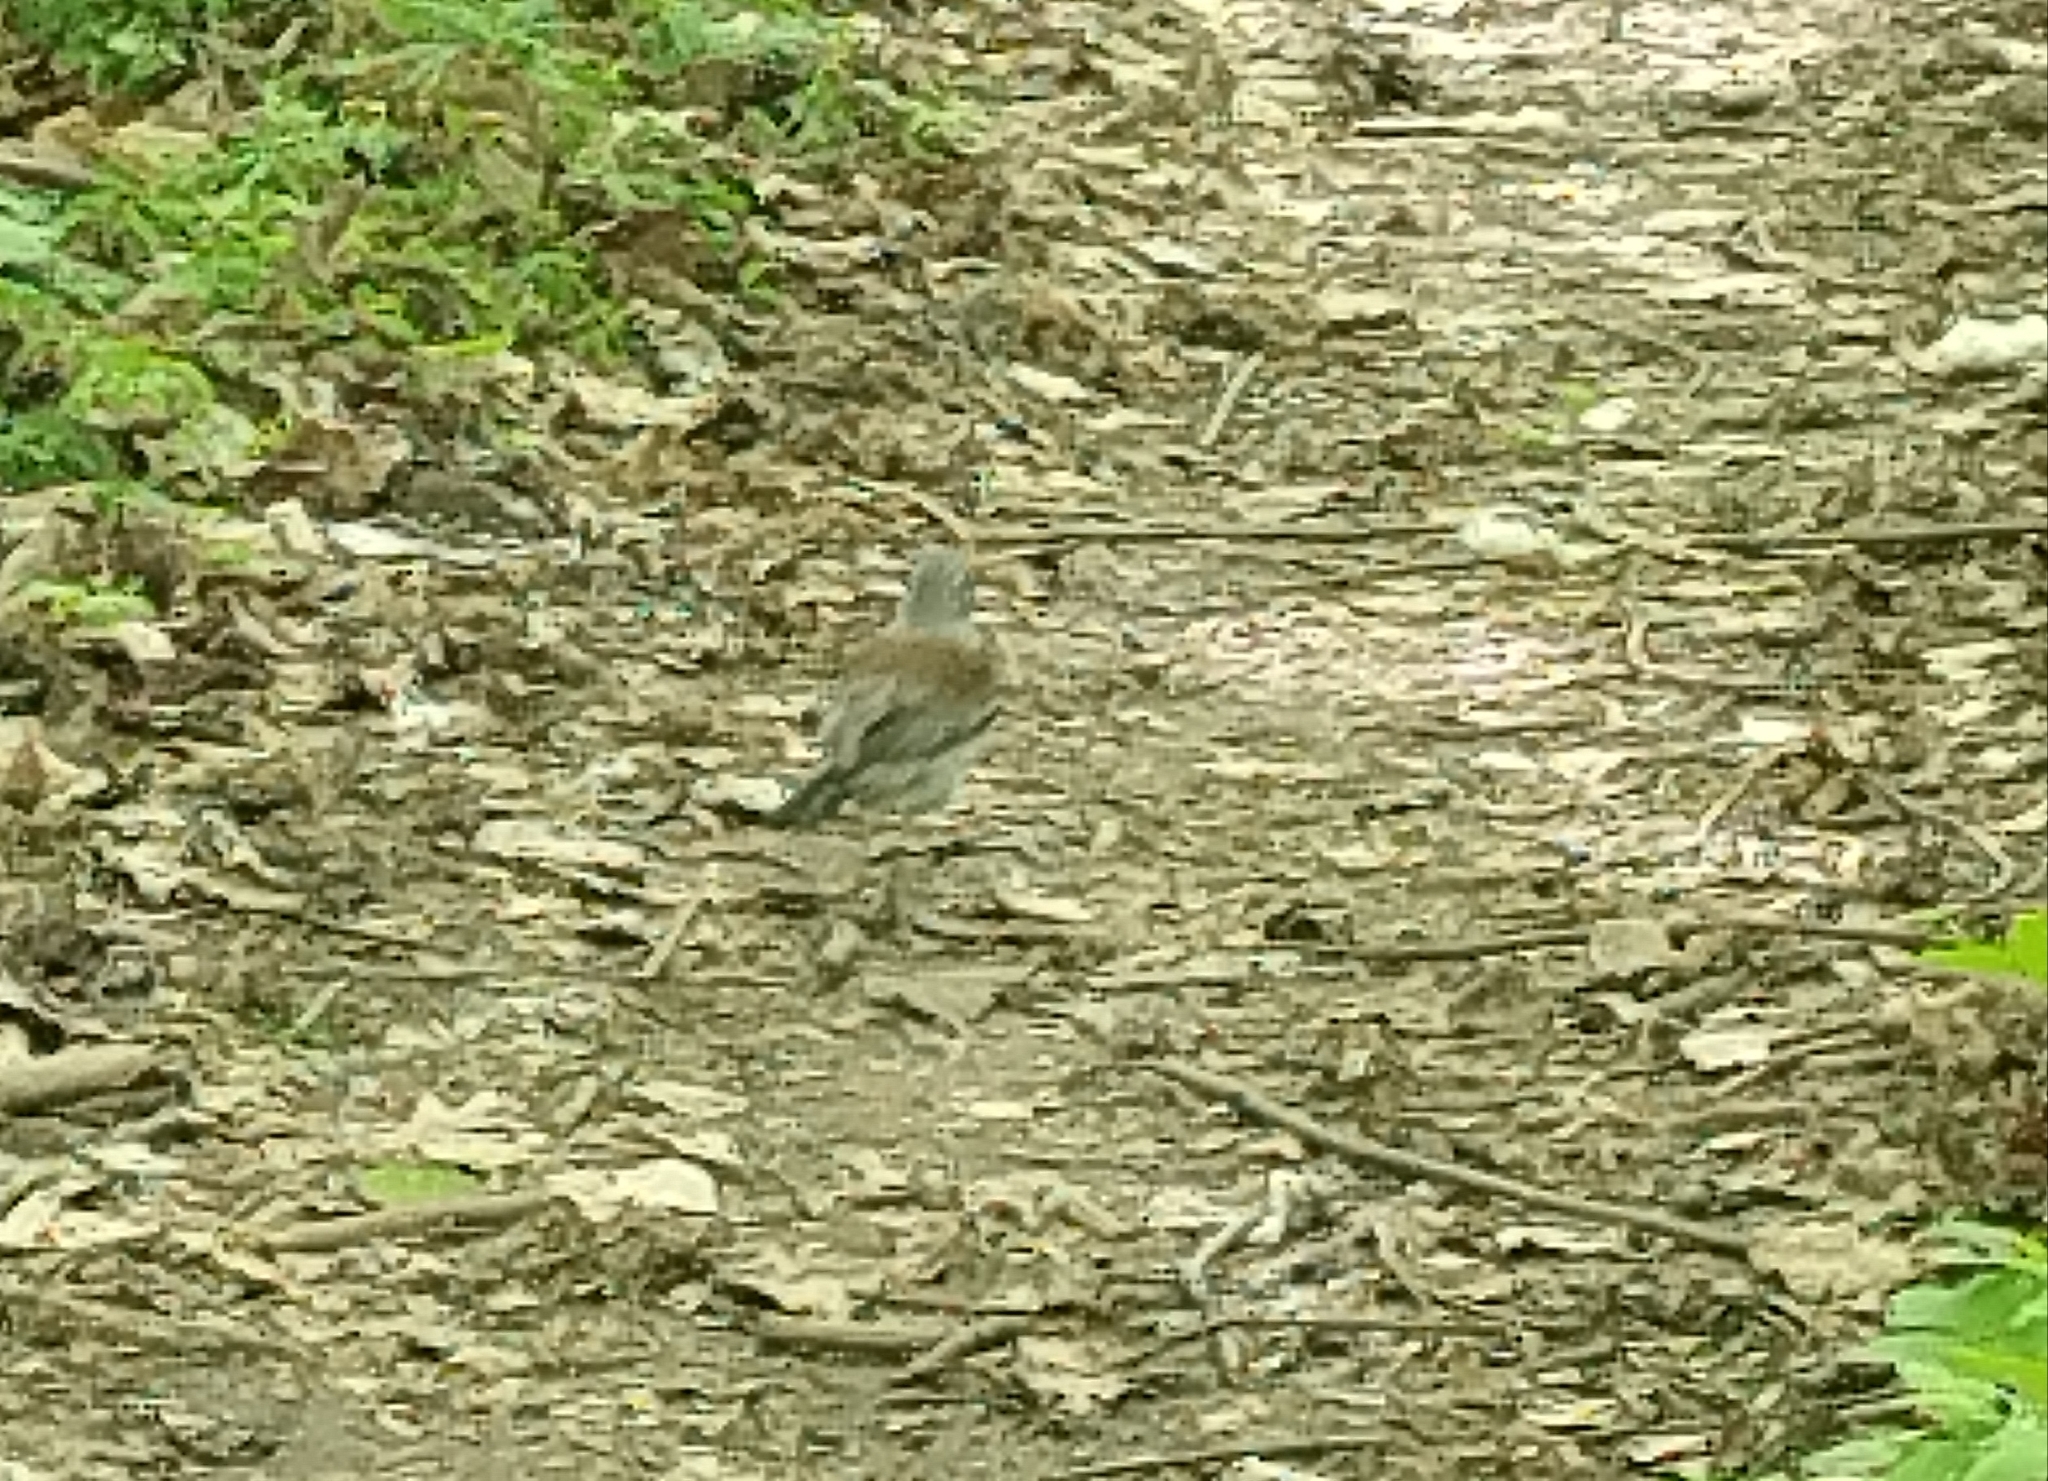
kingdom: Animalia
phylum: Chordata
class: Aves
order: Passeriformes
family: Turdidae
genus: Turdus
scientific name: Turdus pilaris
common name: Fieldfare
